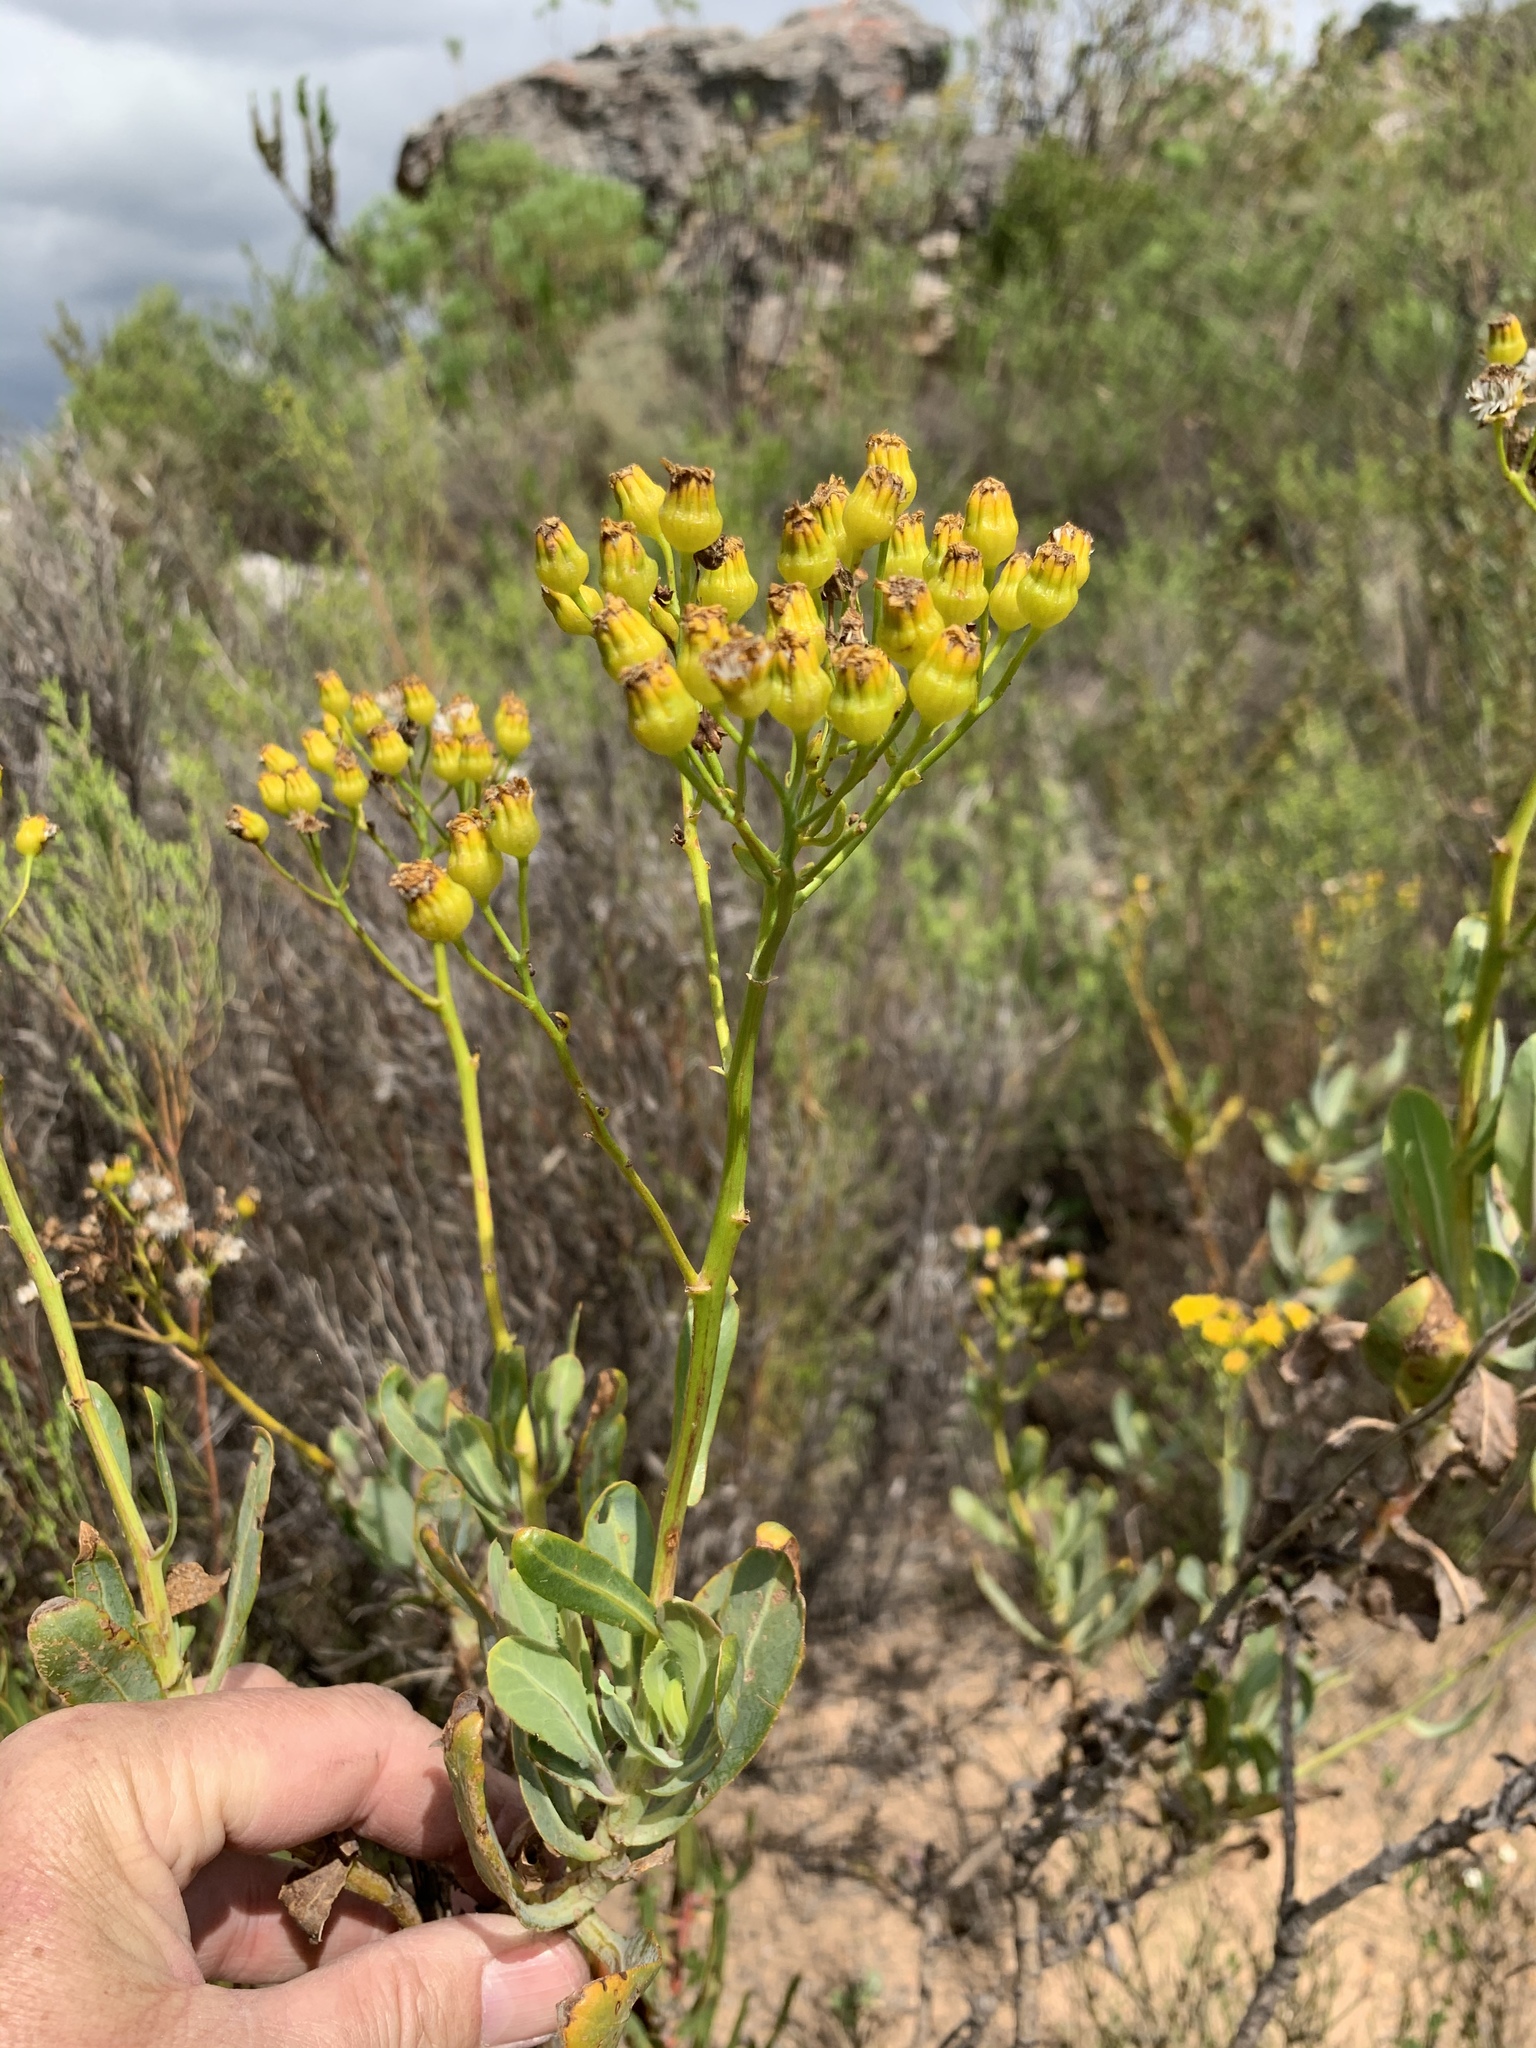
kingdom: Plantae
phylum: Tracheophyta
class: Magnoliopsida
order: Asterales
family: Asteraceae
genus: Othonna
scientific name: Othonna parviflora
